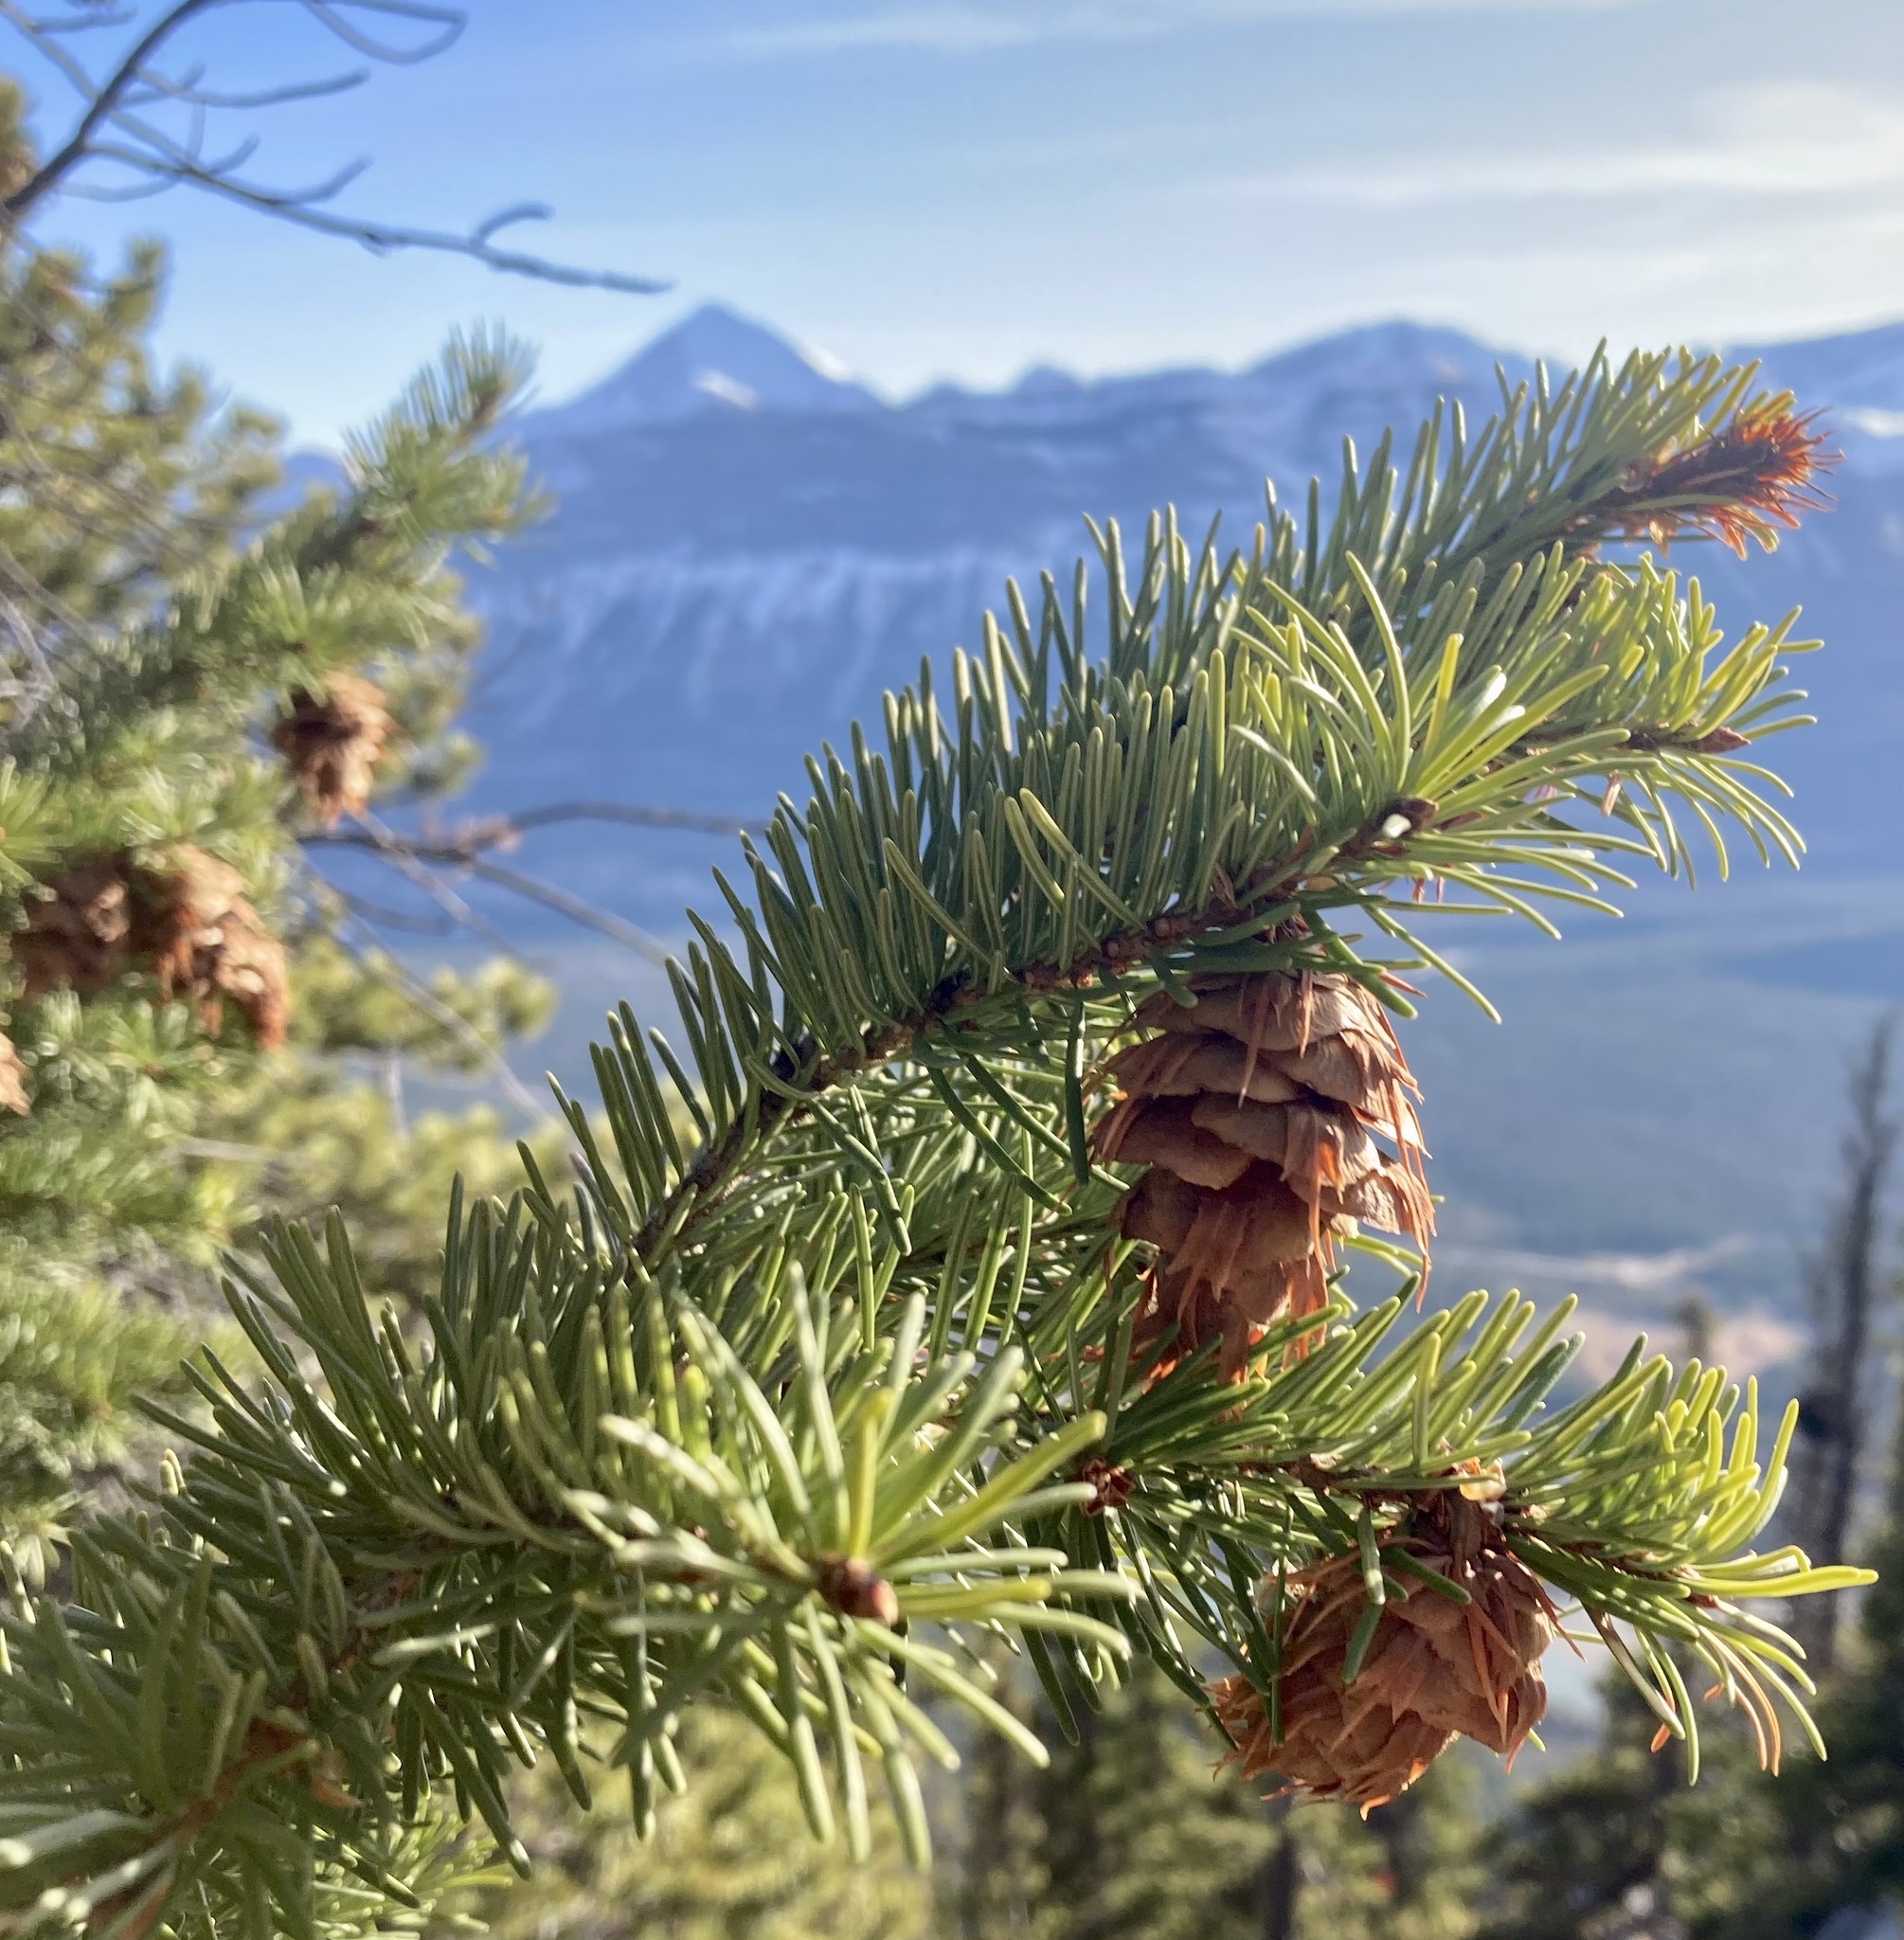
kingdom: Plantae
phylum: Tracheophyta
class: Pinopsida
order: Pinales
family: Pinaceae
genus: Pseudotsuga
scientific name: Pseudotsuga menziesii
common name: Douglas fir
